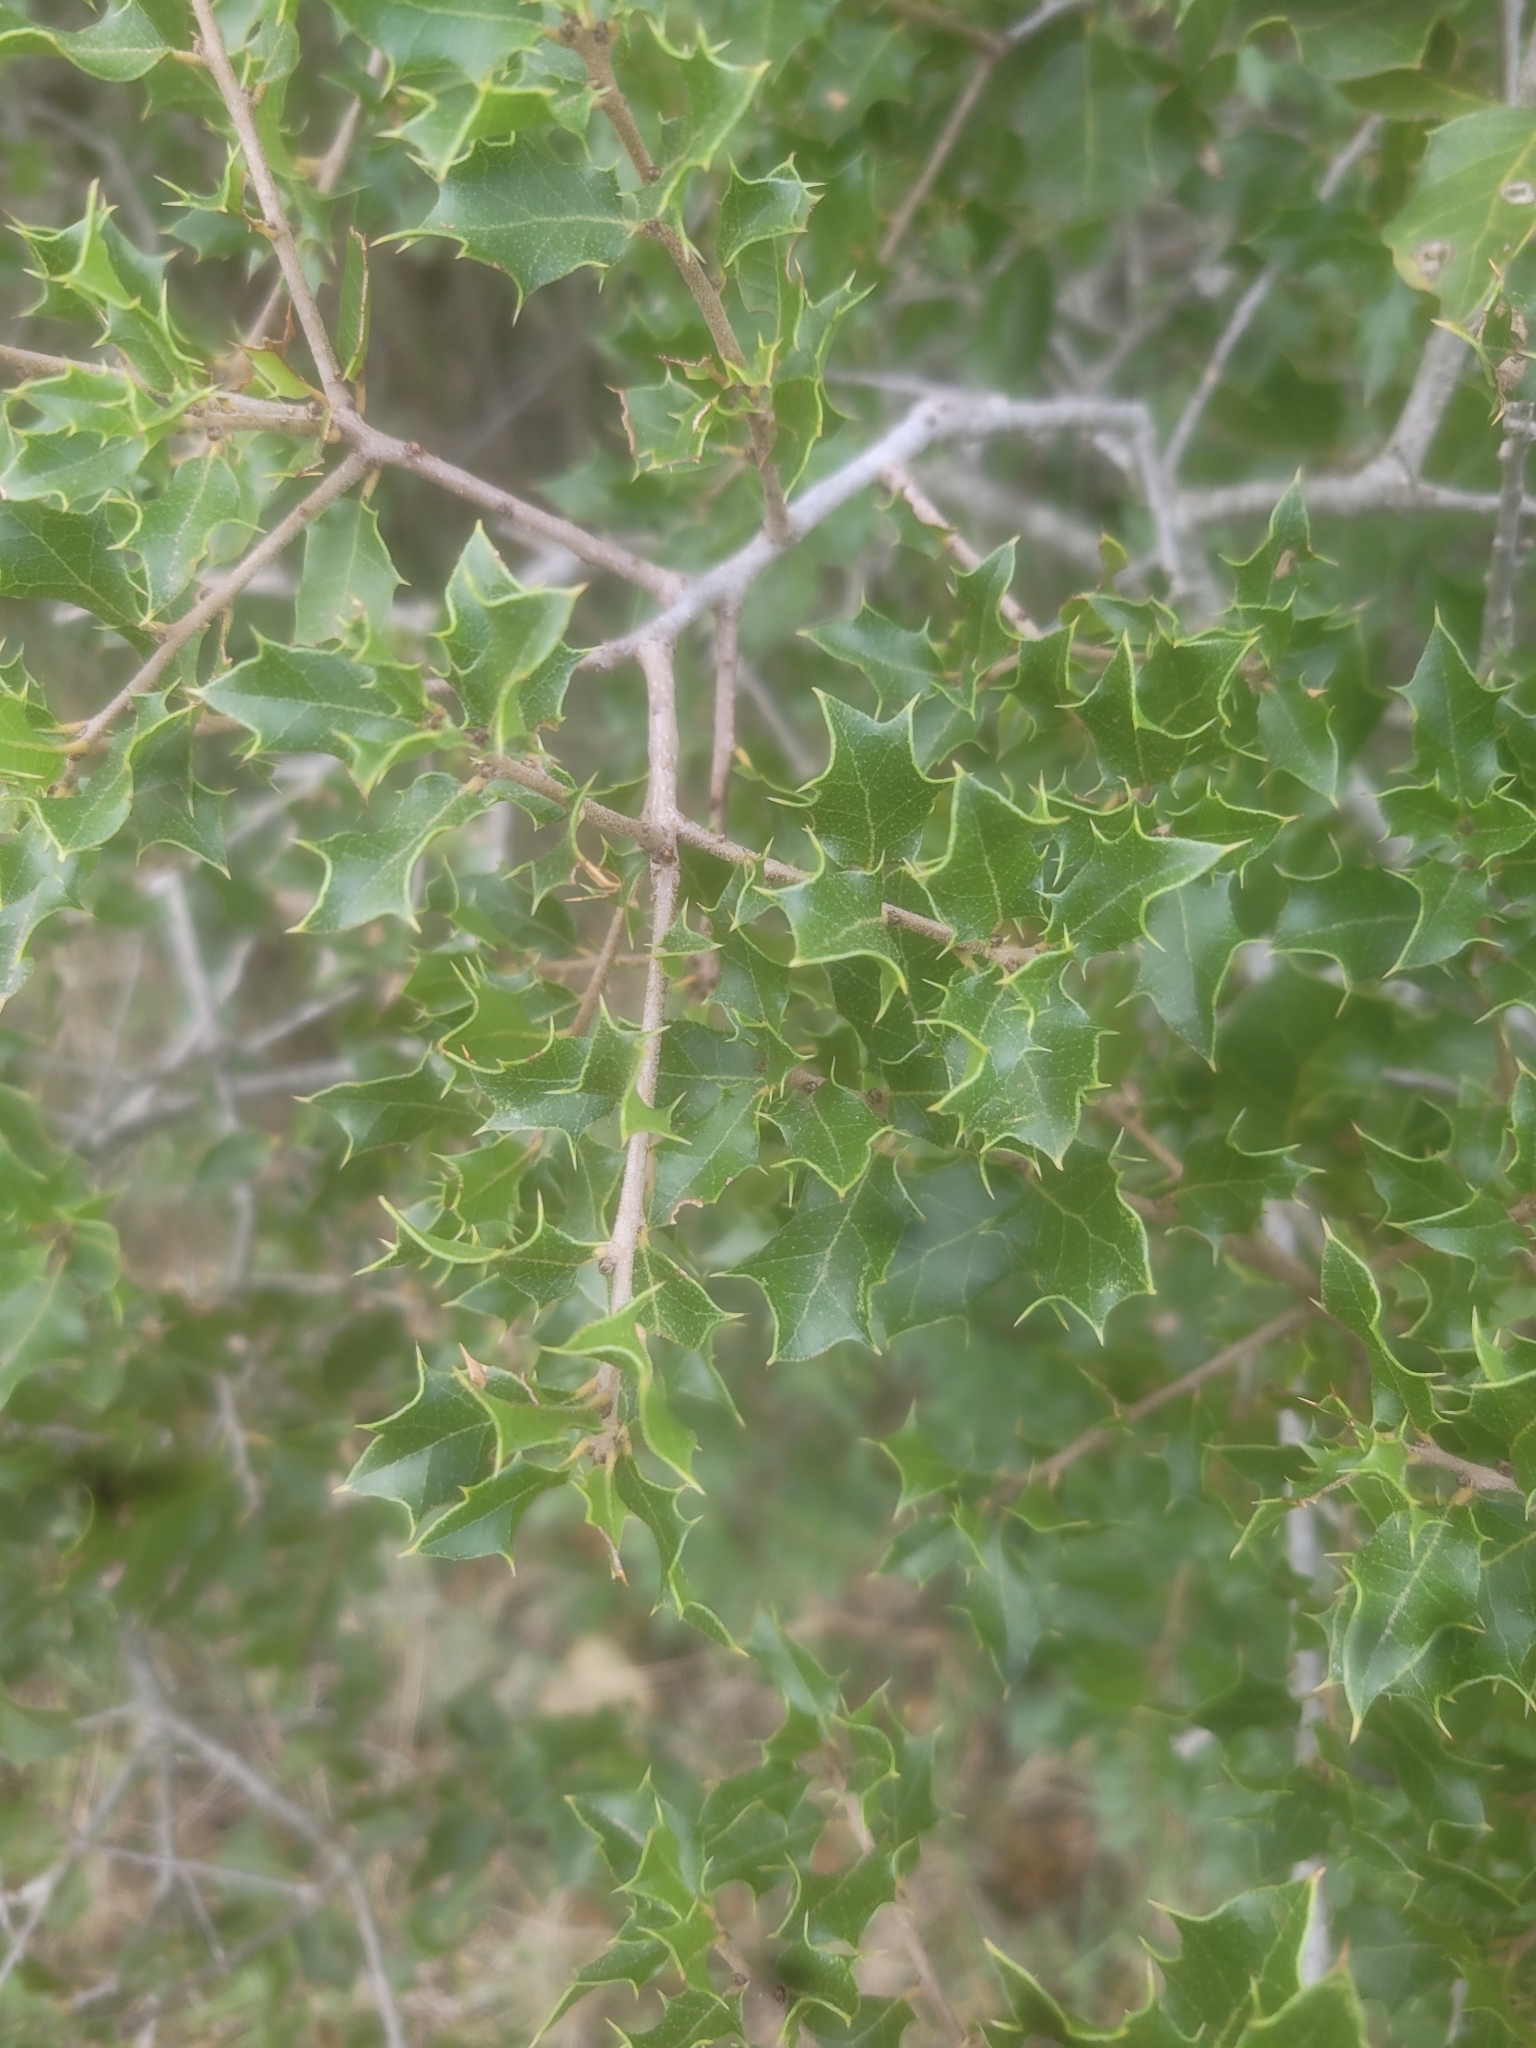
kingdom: Plantae
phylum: Tracheophyta
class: Magnoliopsida
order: Fagales
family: Fagaceae
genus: Quercus
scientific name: Quercus coccifera
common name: Kermes oak
